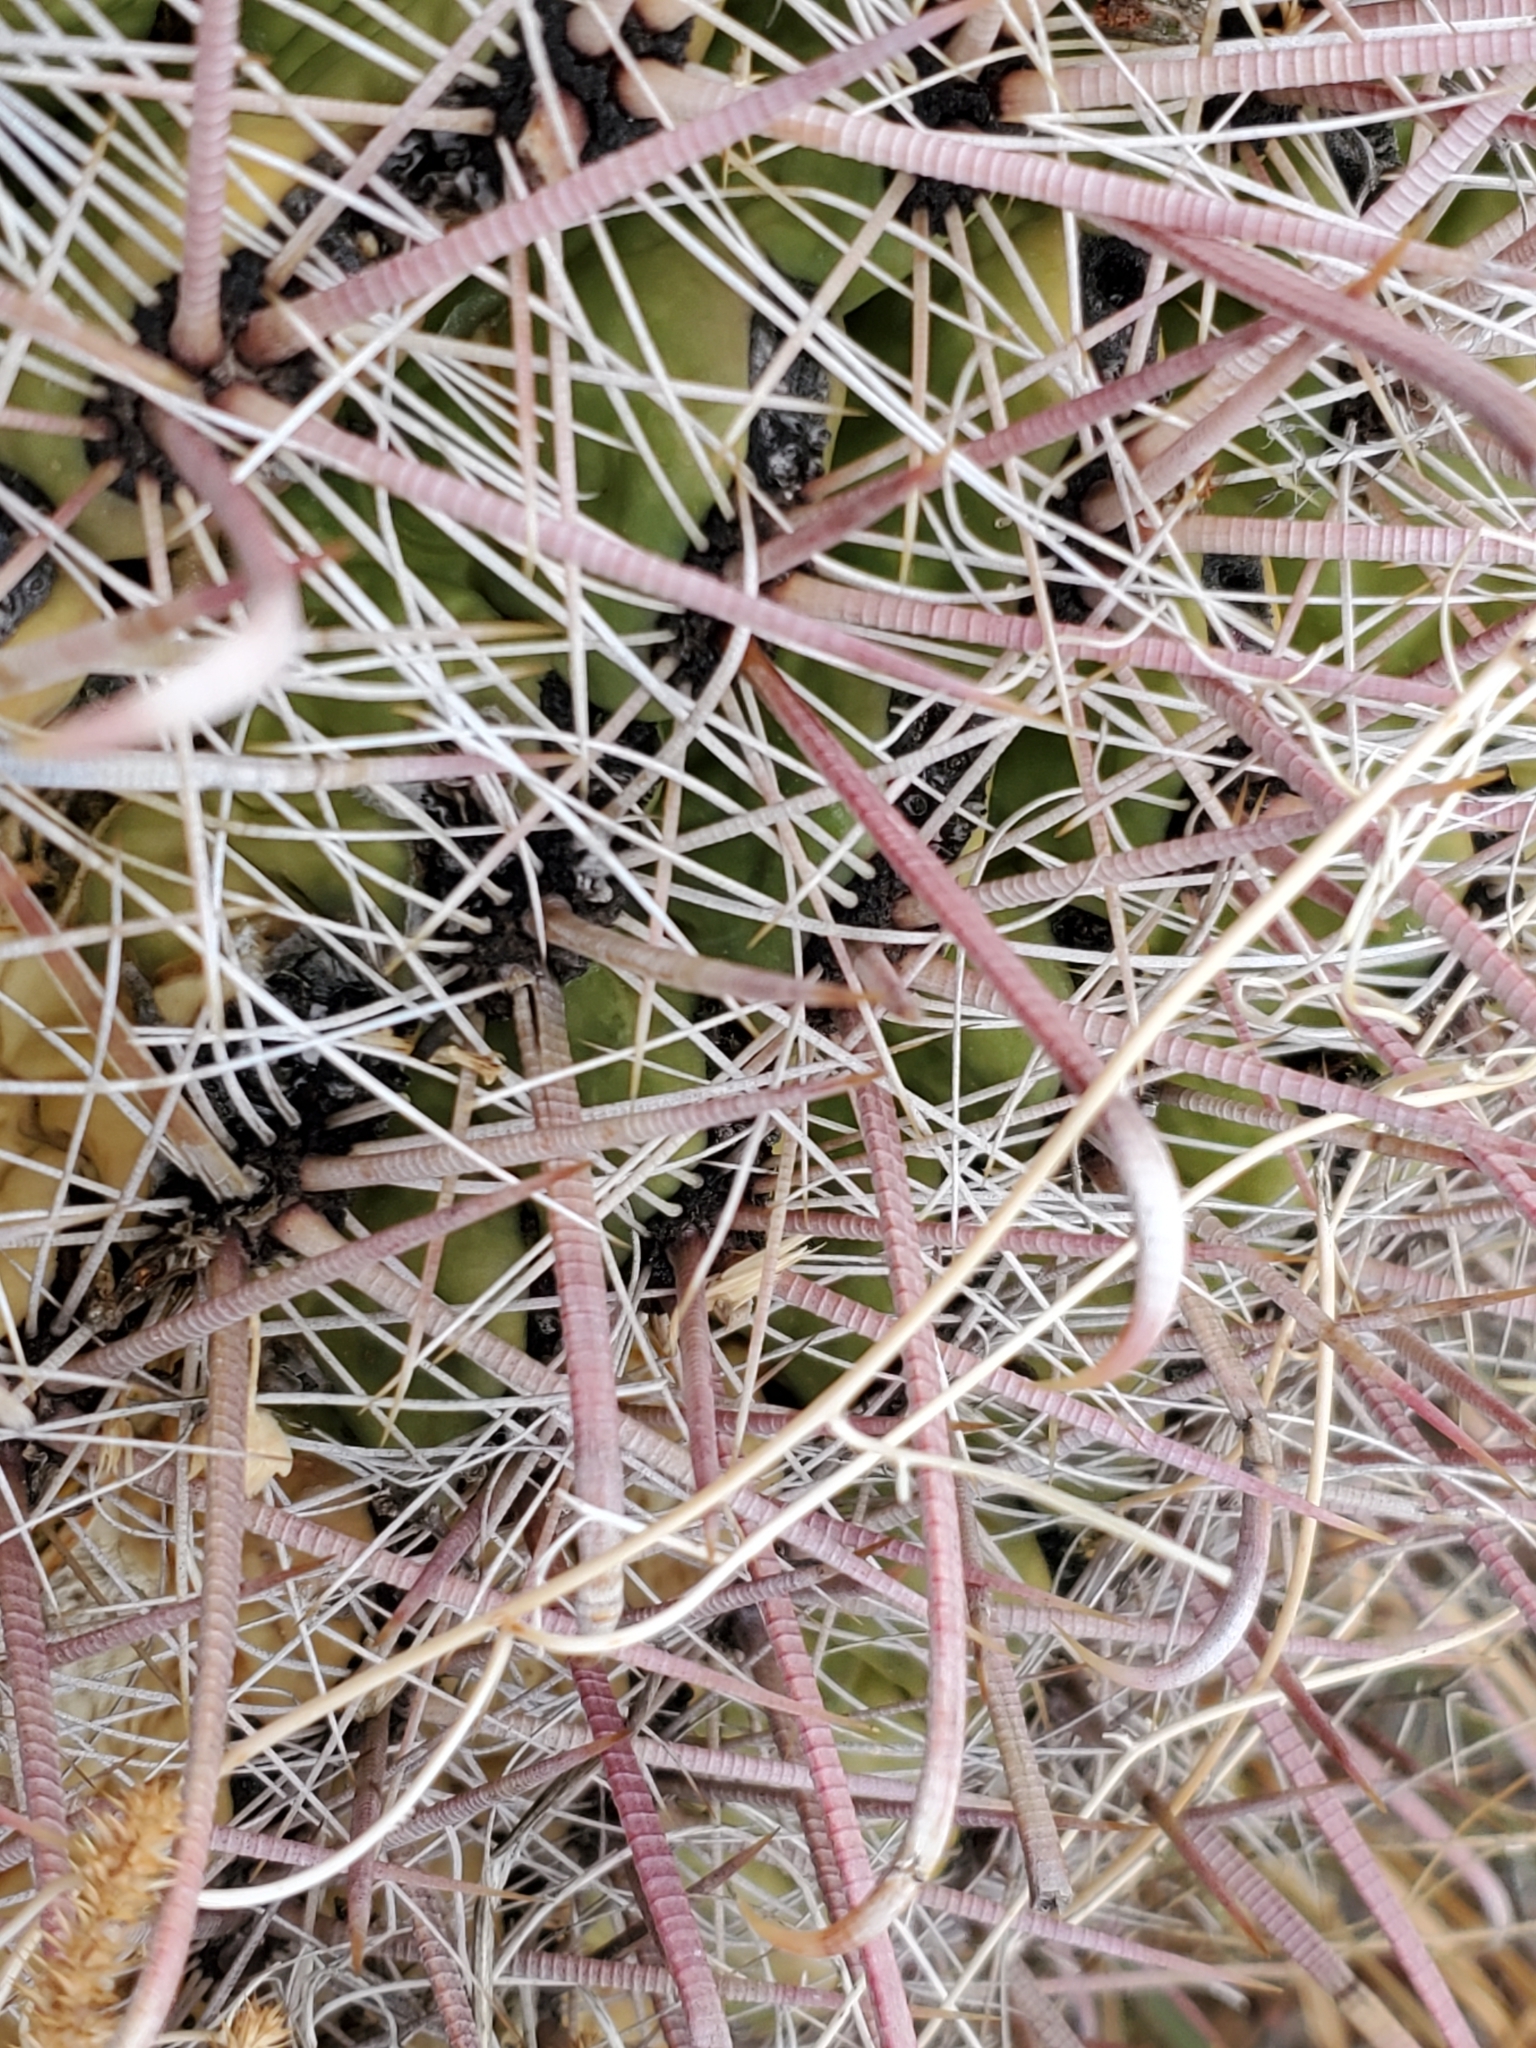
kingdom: Plantae
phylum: Tracheophyta
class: Magnoliopsida
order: Caryophyllales
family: Cactaceae
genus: Ferocactus
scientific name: Ferocactus wislizeni
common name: Candy barrel cactus
